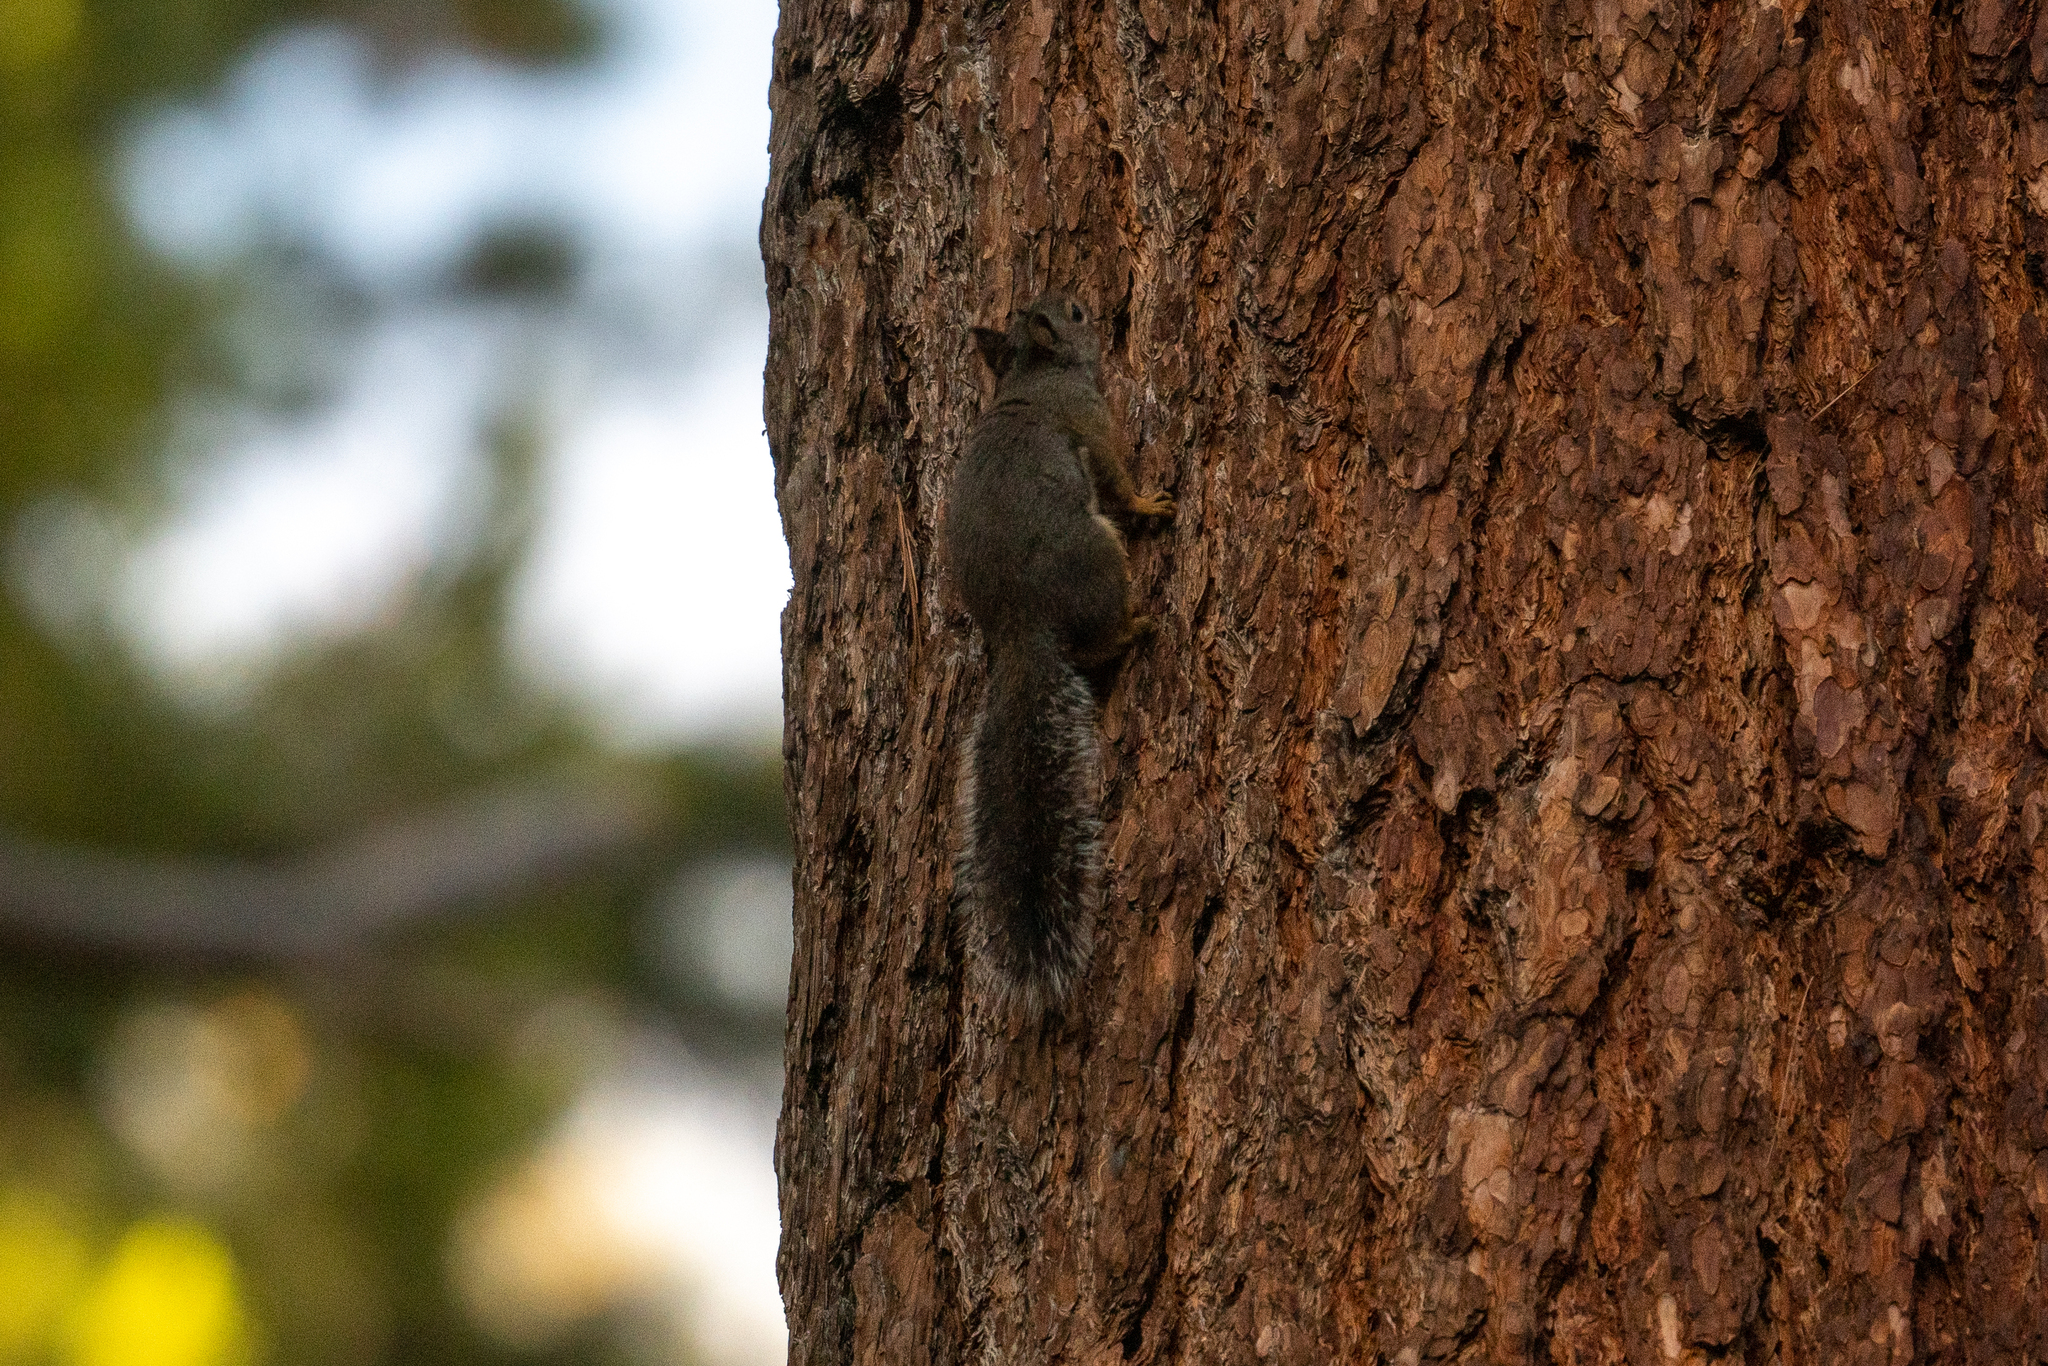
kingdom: Animalia
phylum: Chordata
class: Mammalia
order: Rodentia
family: Sciuridae
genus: Tamiasciurus
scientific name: Tamiasciurus douglasii
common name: Douglas's squirrel
